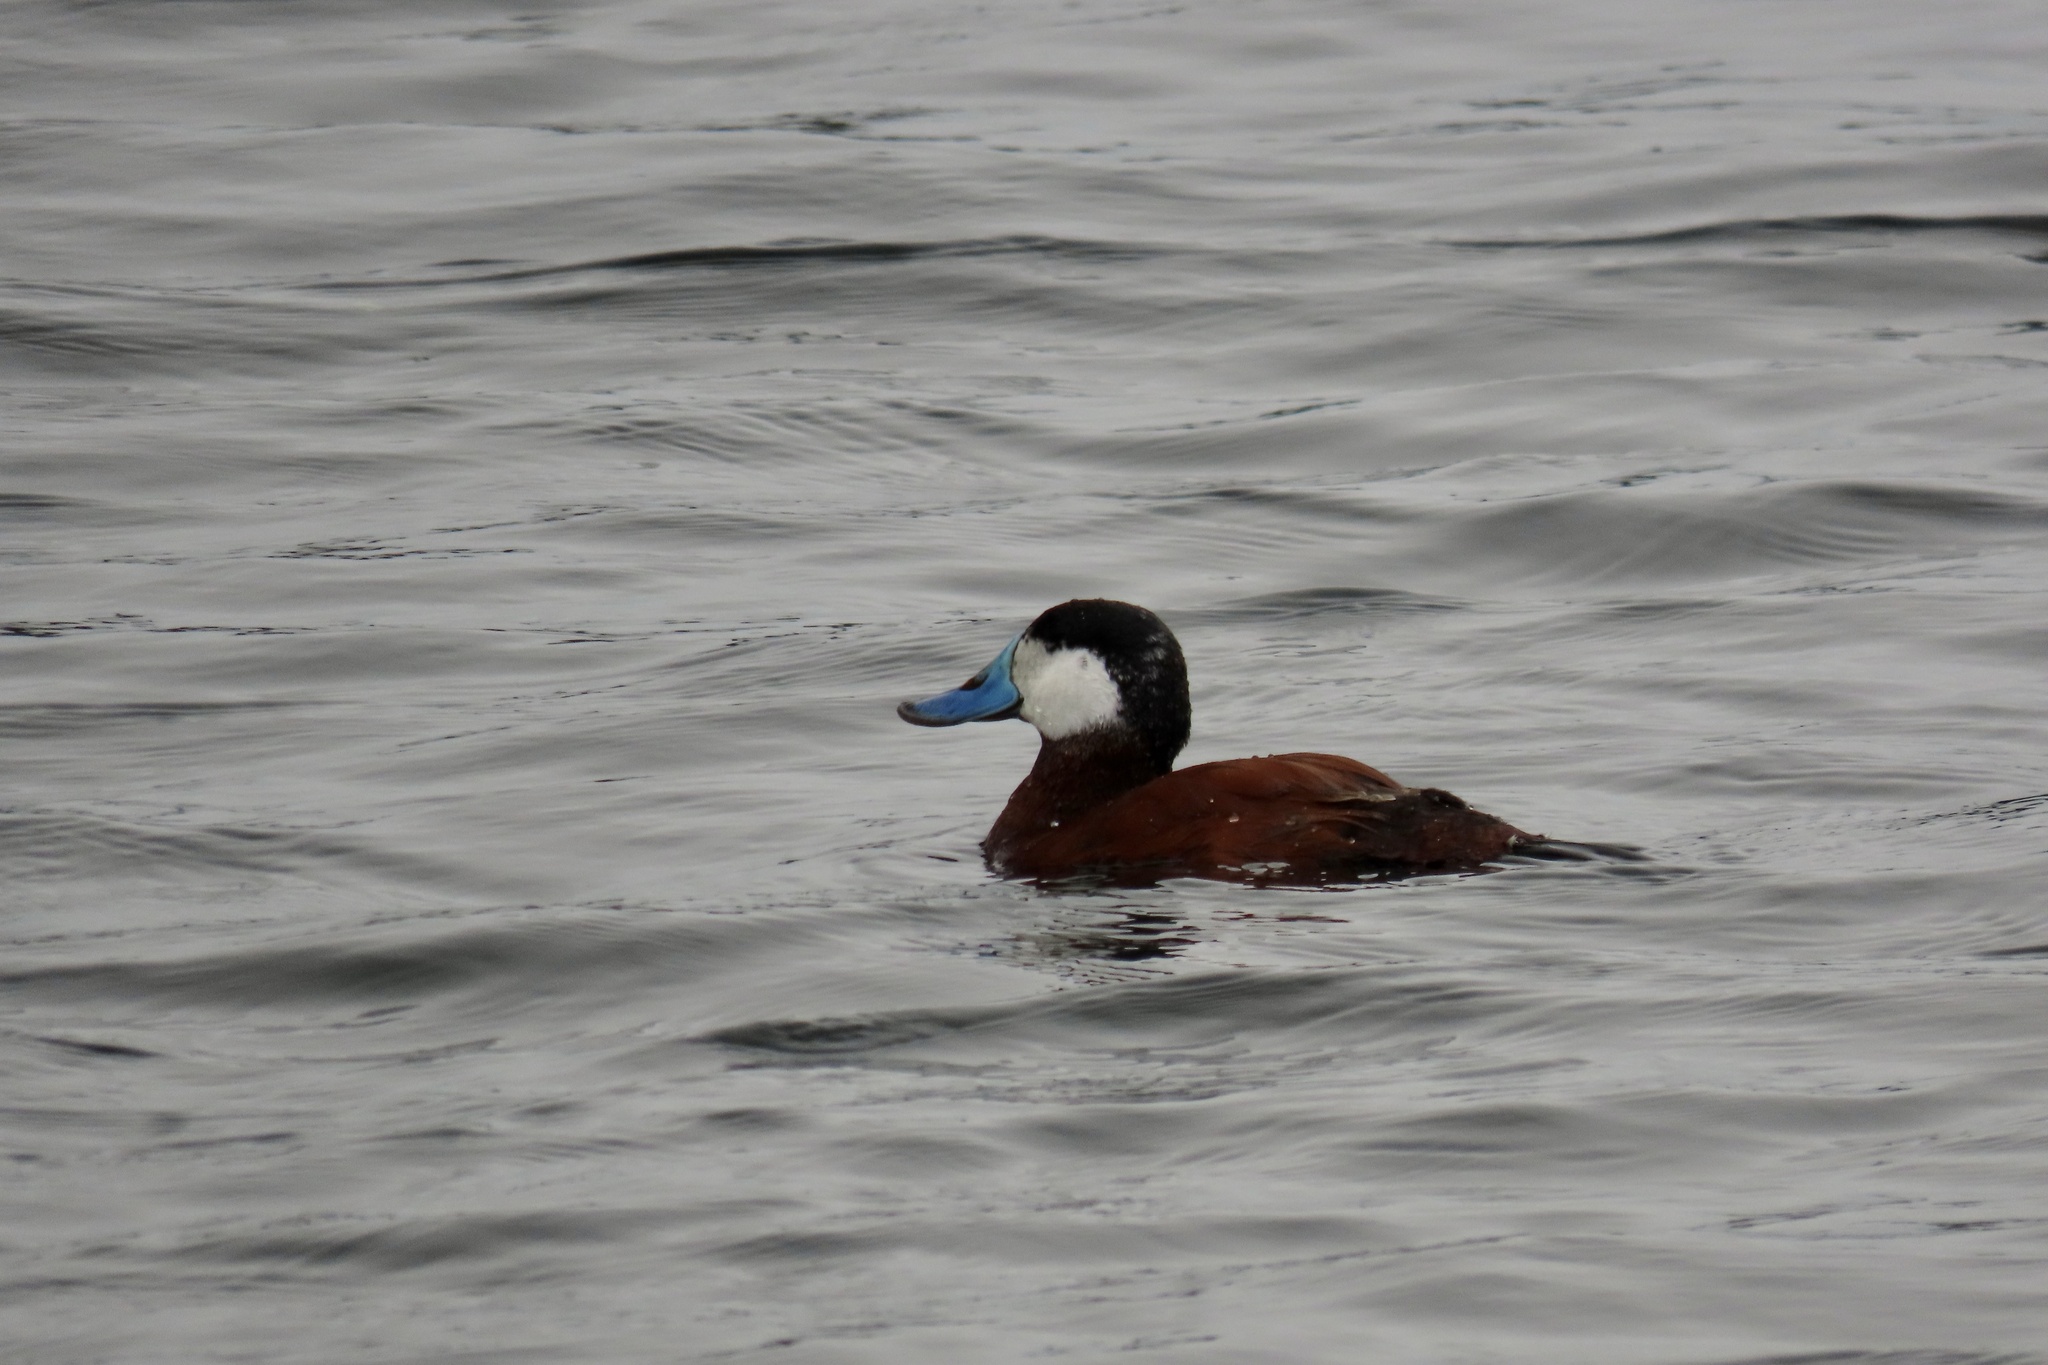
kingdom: Animalia
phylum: Chordata
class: Aves
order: Anseriformes
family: Anatidae
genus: Oxyura
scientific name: Oxyura jamaicensis
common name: Ruddy duck
